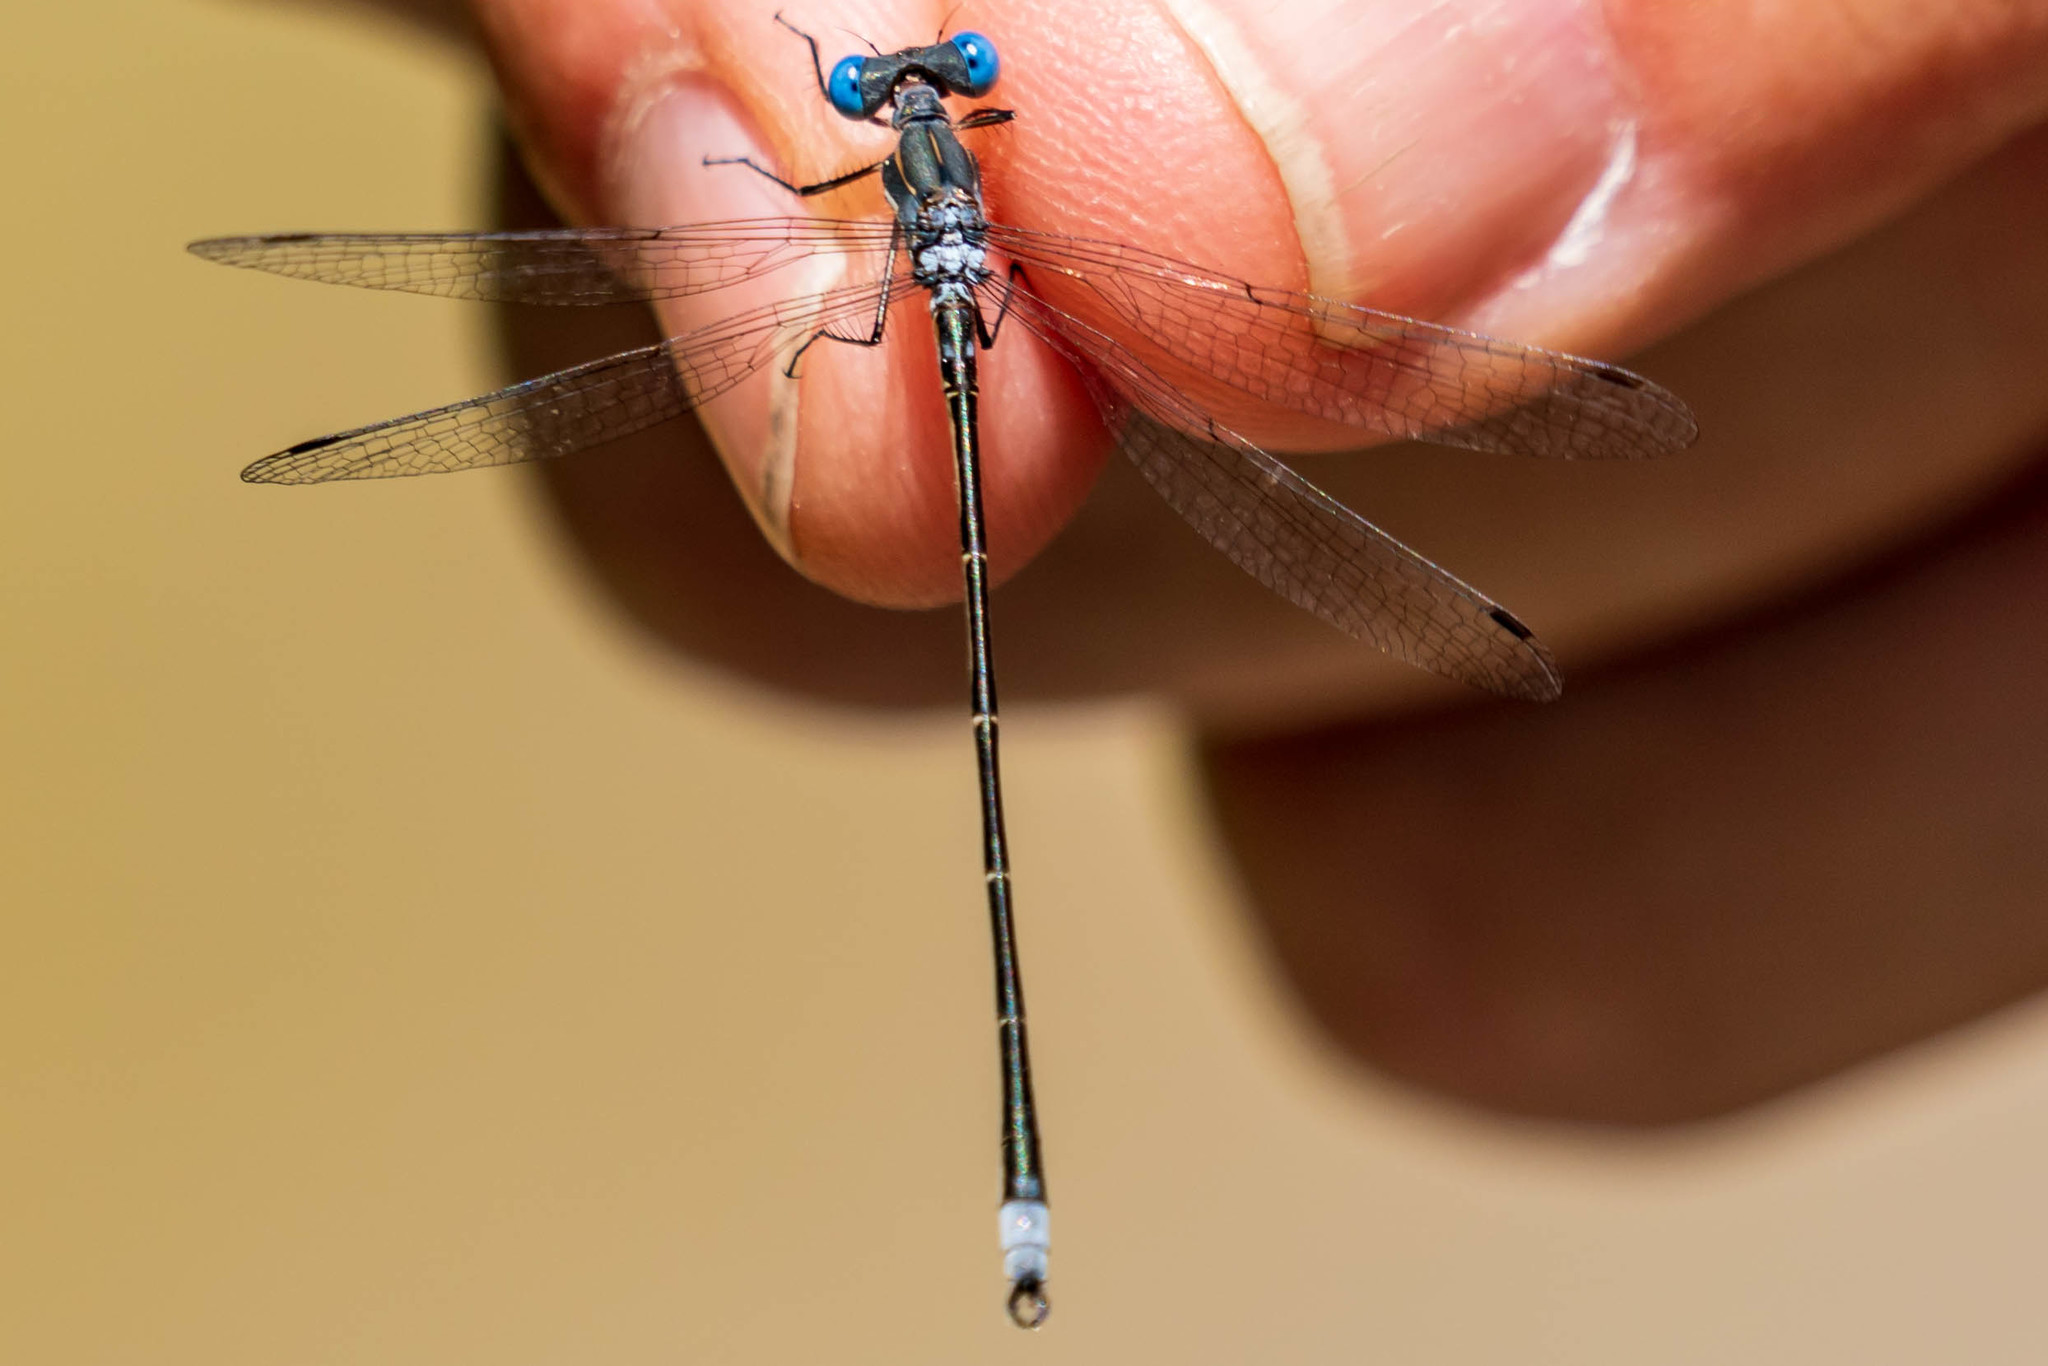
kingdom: Animalia
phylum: Arthropoda
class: Insecta
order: Odonata
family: Lestidae
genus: Lestes
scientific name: Lestes congener
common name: Spotted spreadwing
